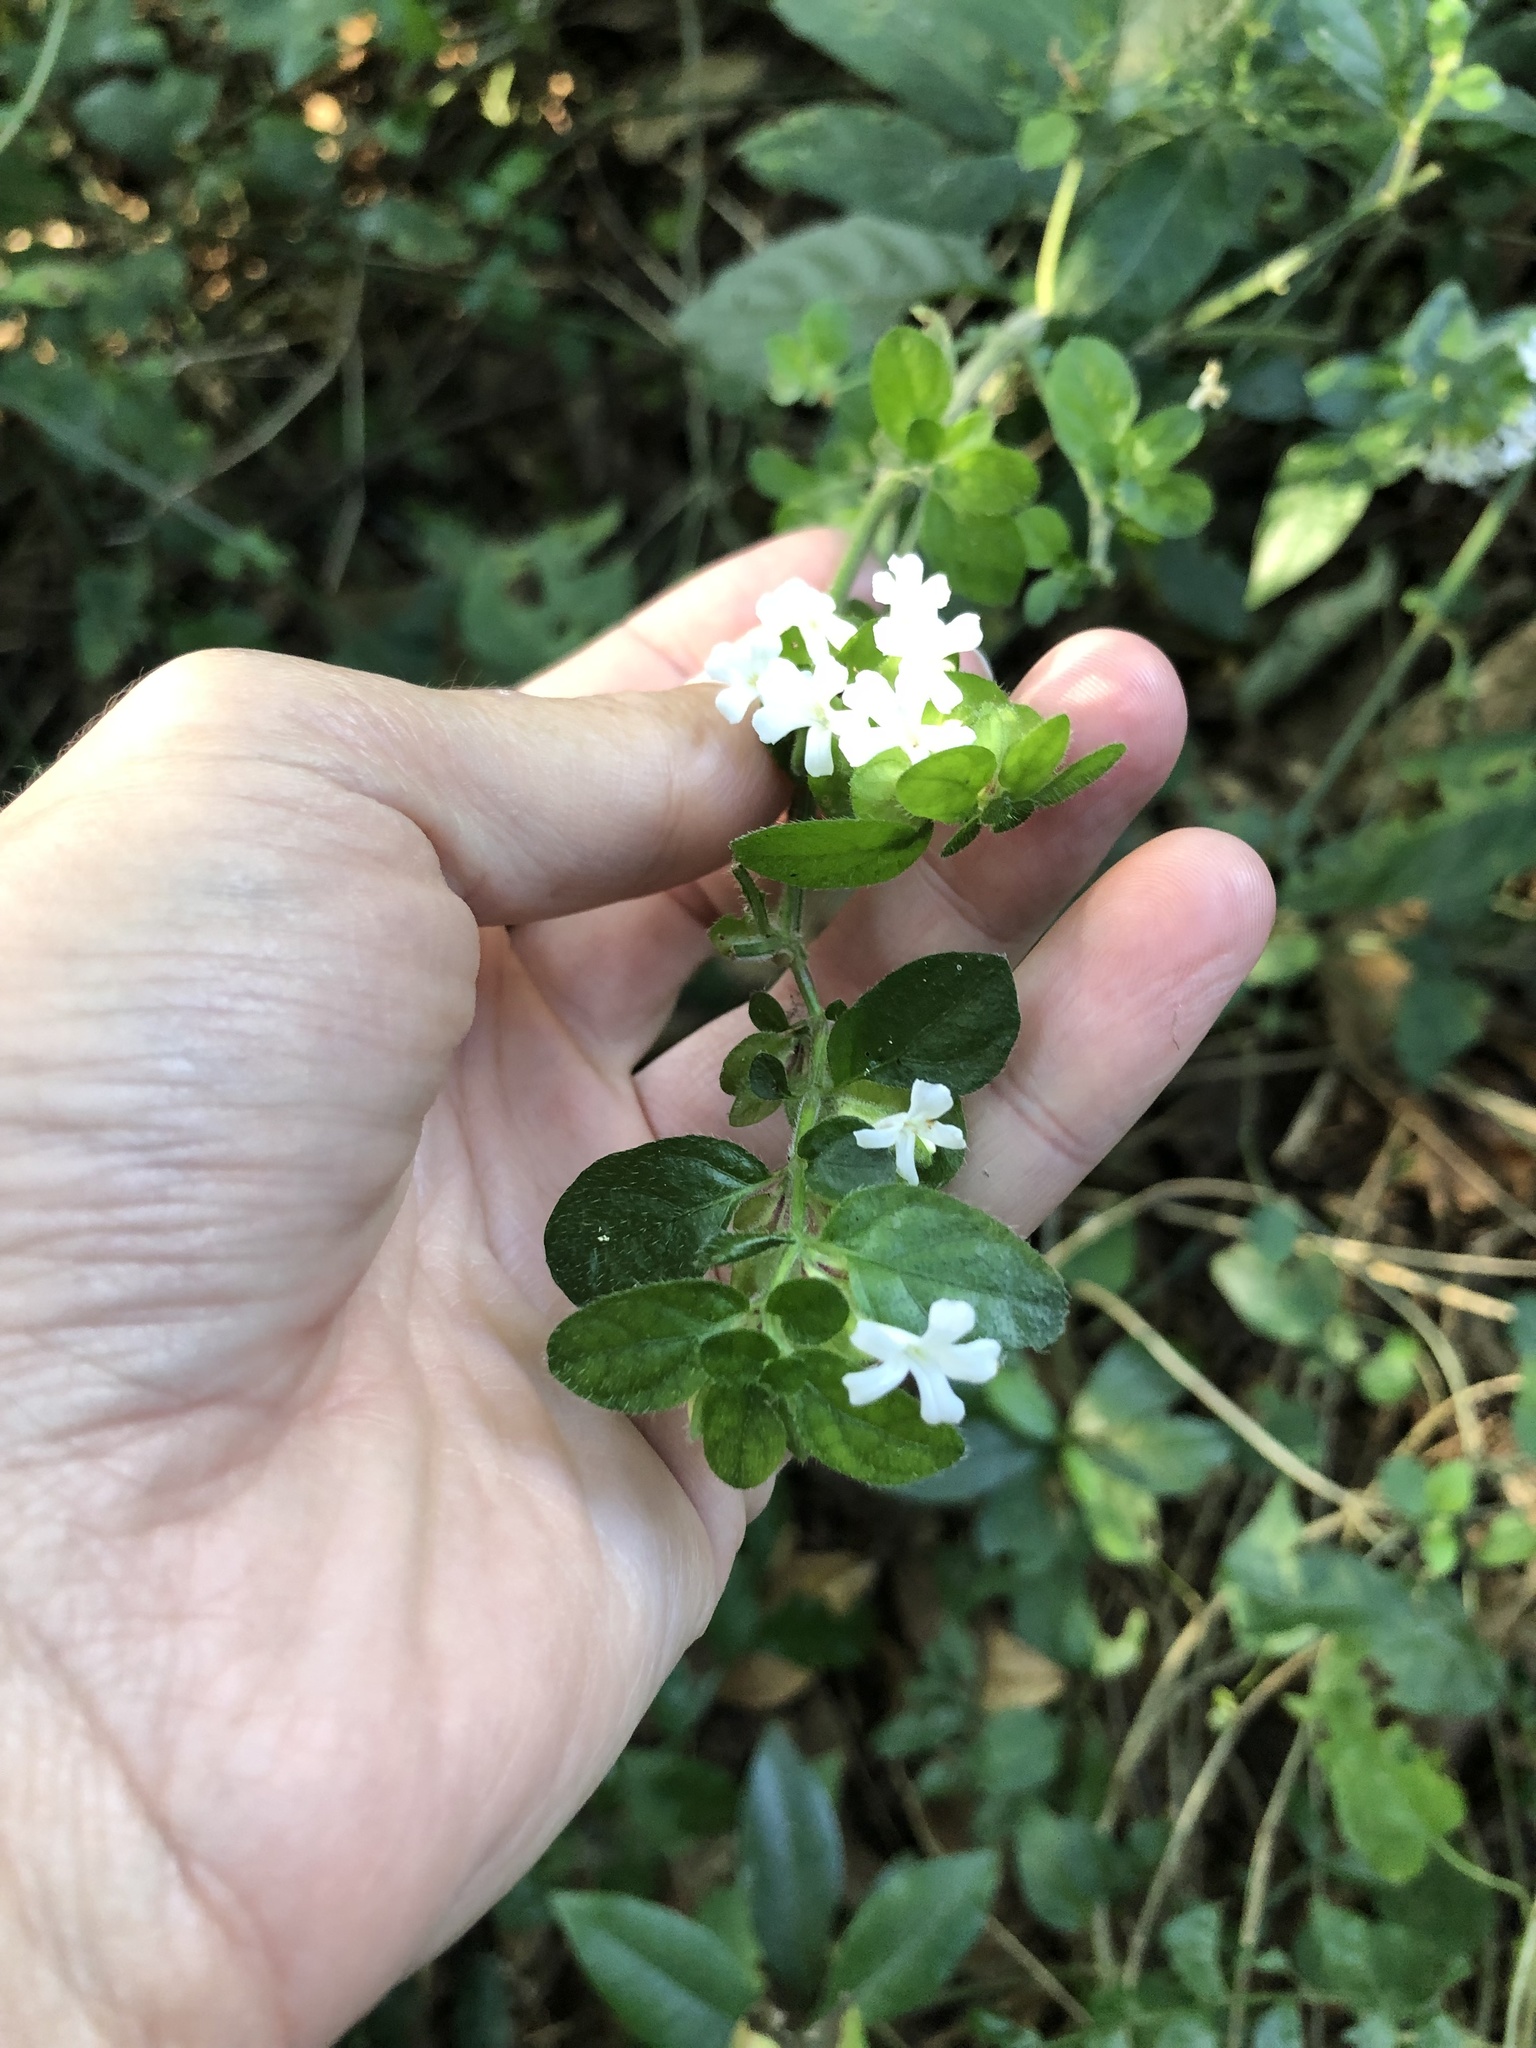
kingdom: Plantae
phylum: Tracheophyta
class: Magnoliopsida
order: Lamiales
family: Acanthaceae
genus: Phaulopsis
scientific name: Phaulopsis imbricata
